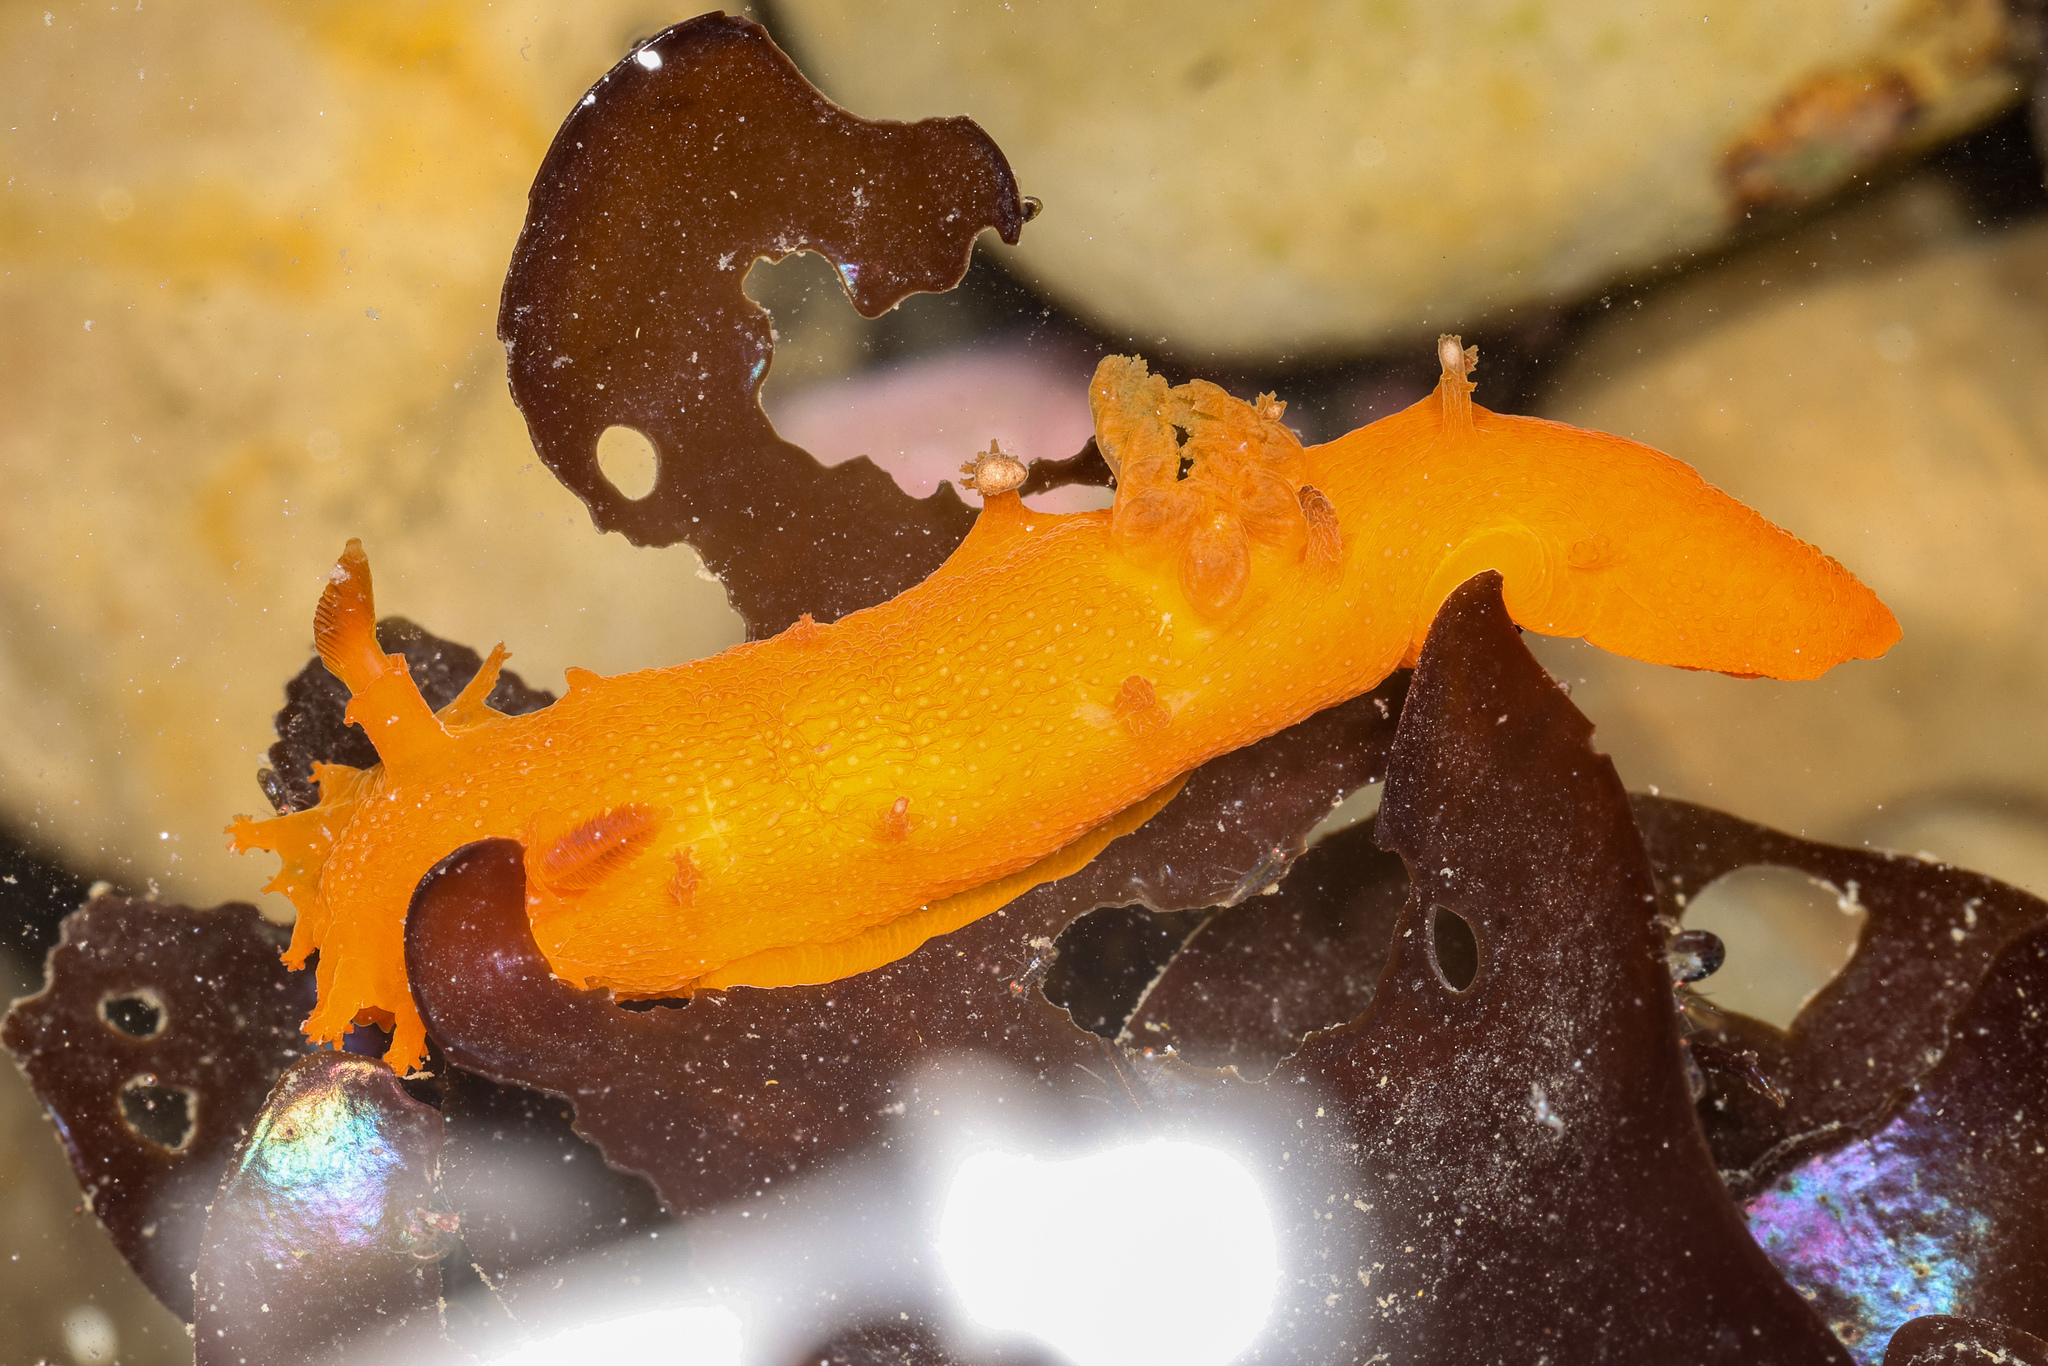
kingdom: Animalia
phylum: Mollusca
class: Gastropoda
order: Nudibranchia
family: Polyceridae
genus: Triopha
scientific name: Triopha maculata
